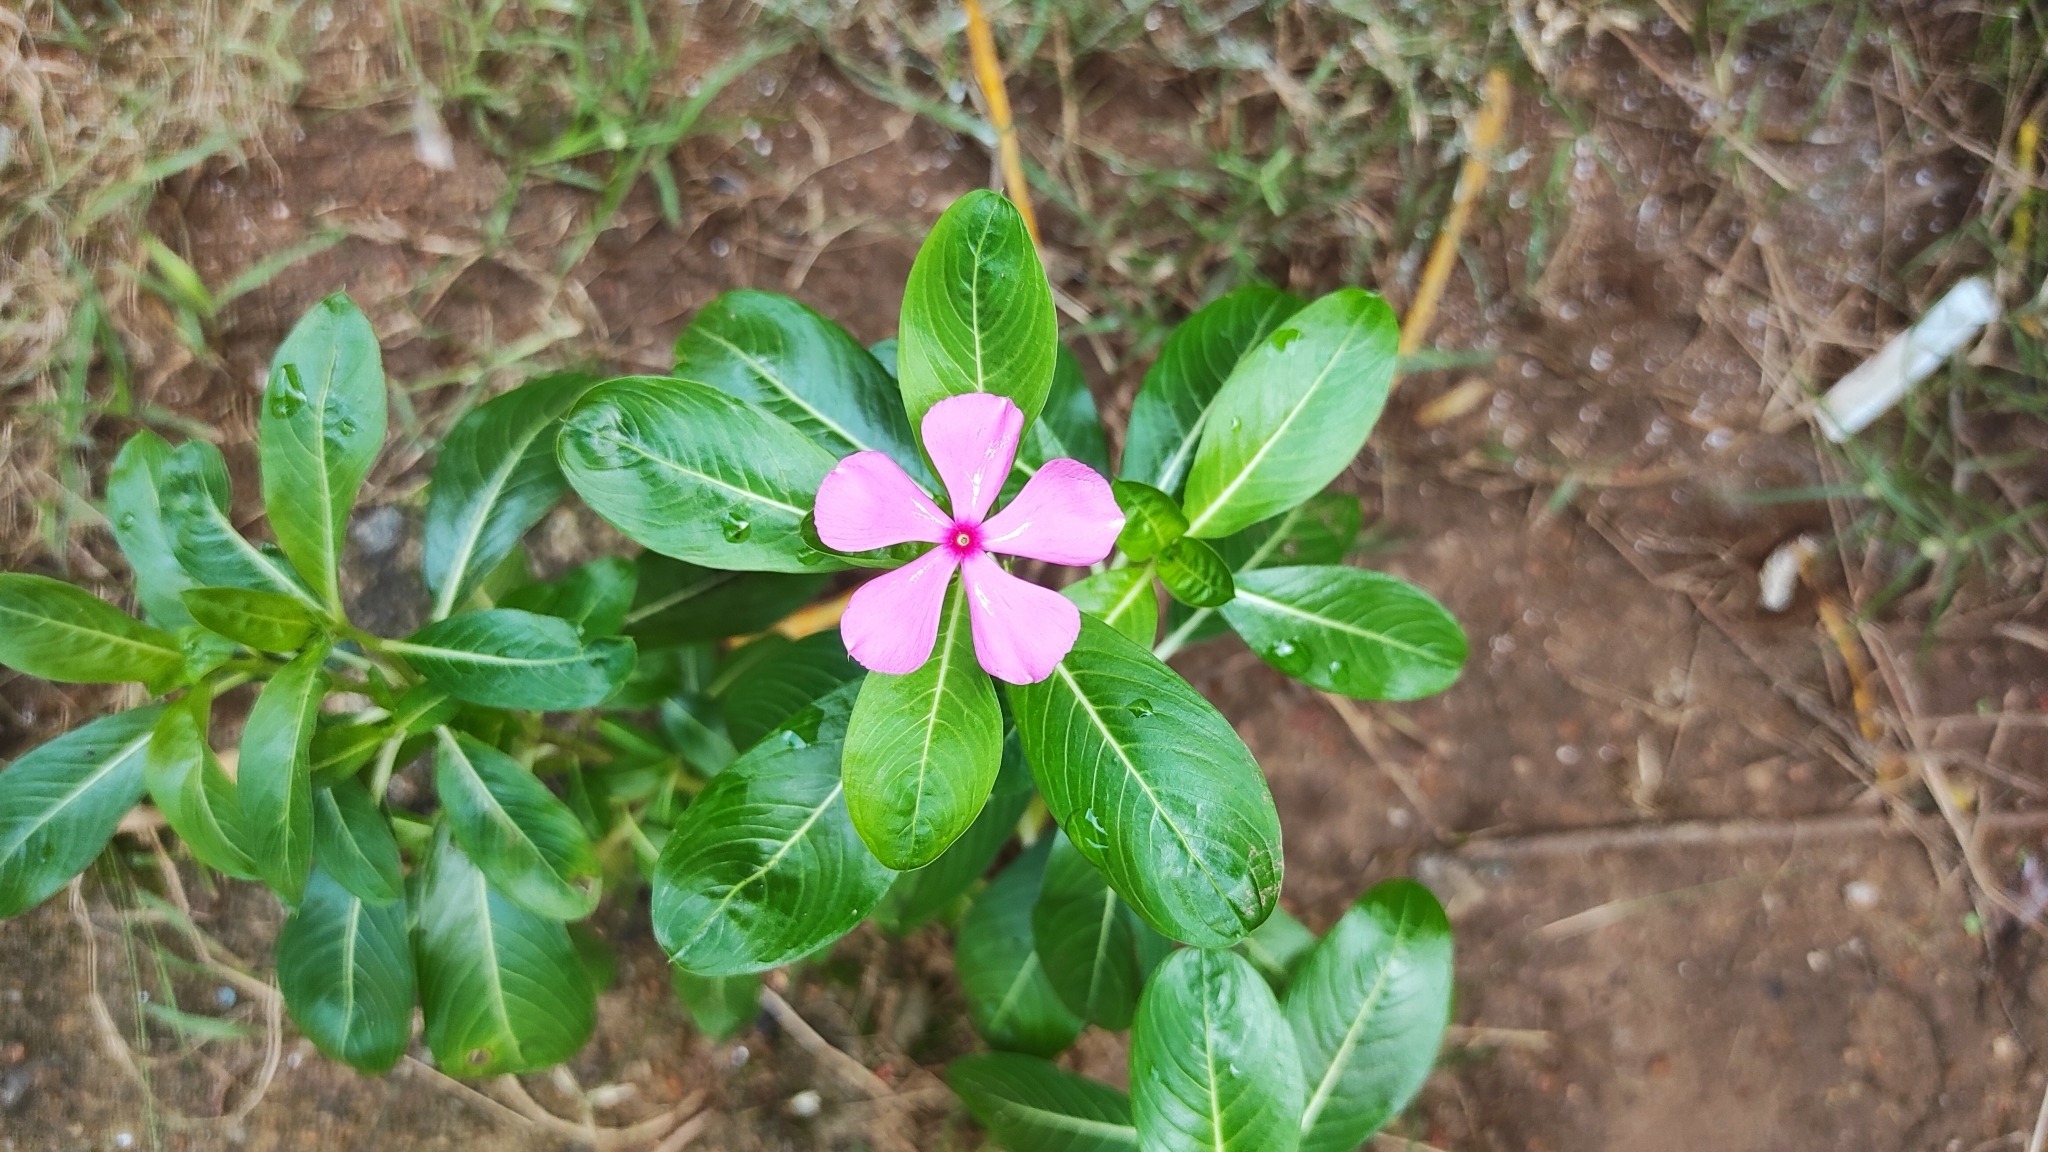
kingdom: Plantae
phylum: Tracheophyta
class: Magnoliopsida
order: Gentianales
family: Apocynaceae
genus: Catharanthus
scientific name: Catharanthus roseus
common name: Madagascar periwinkle
